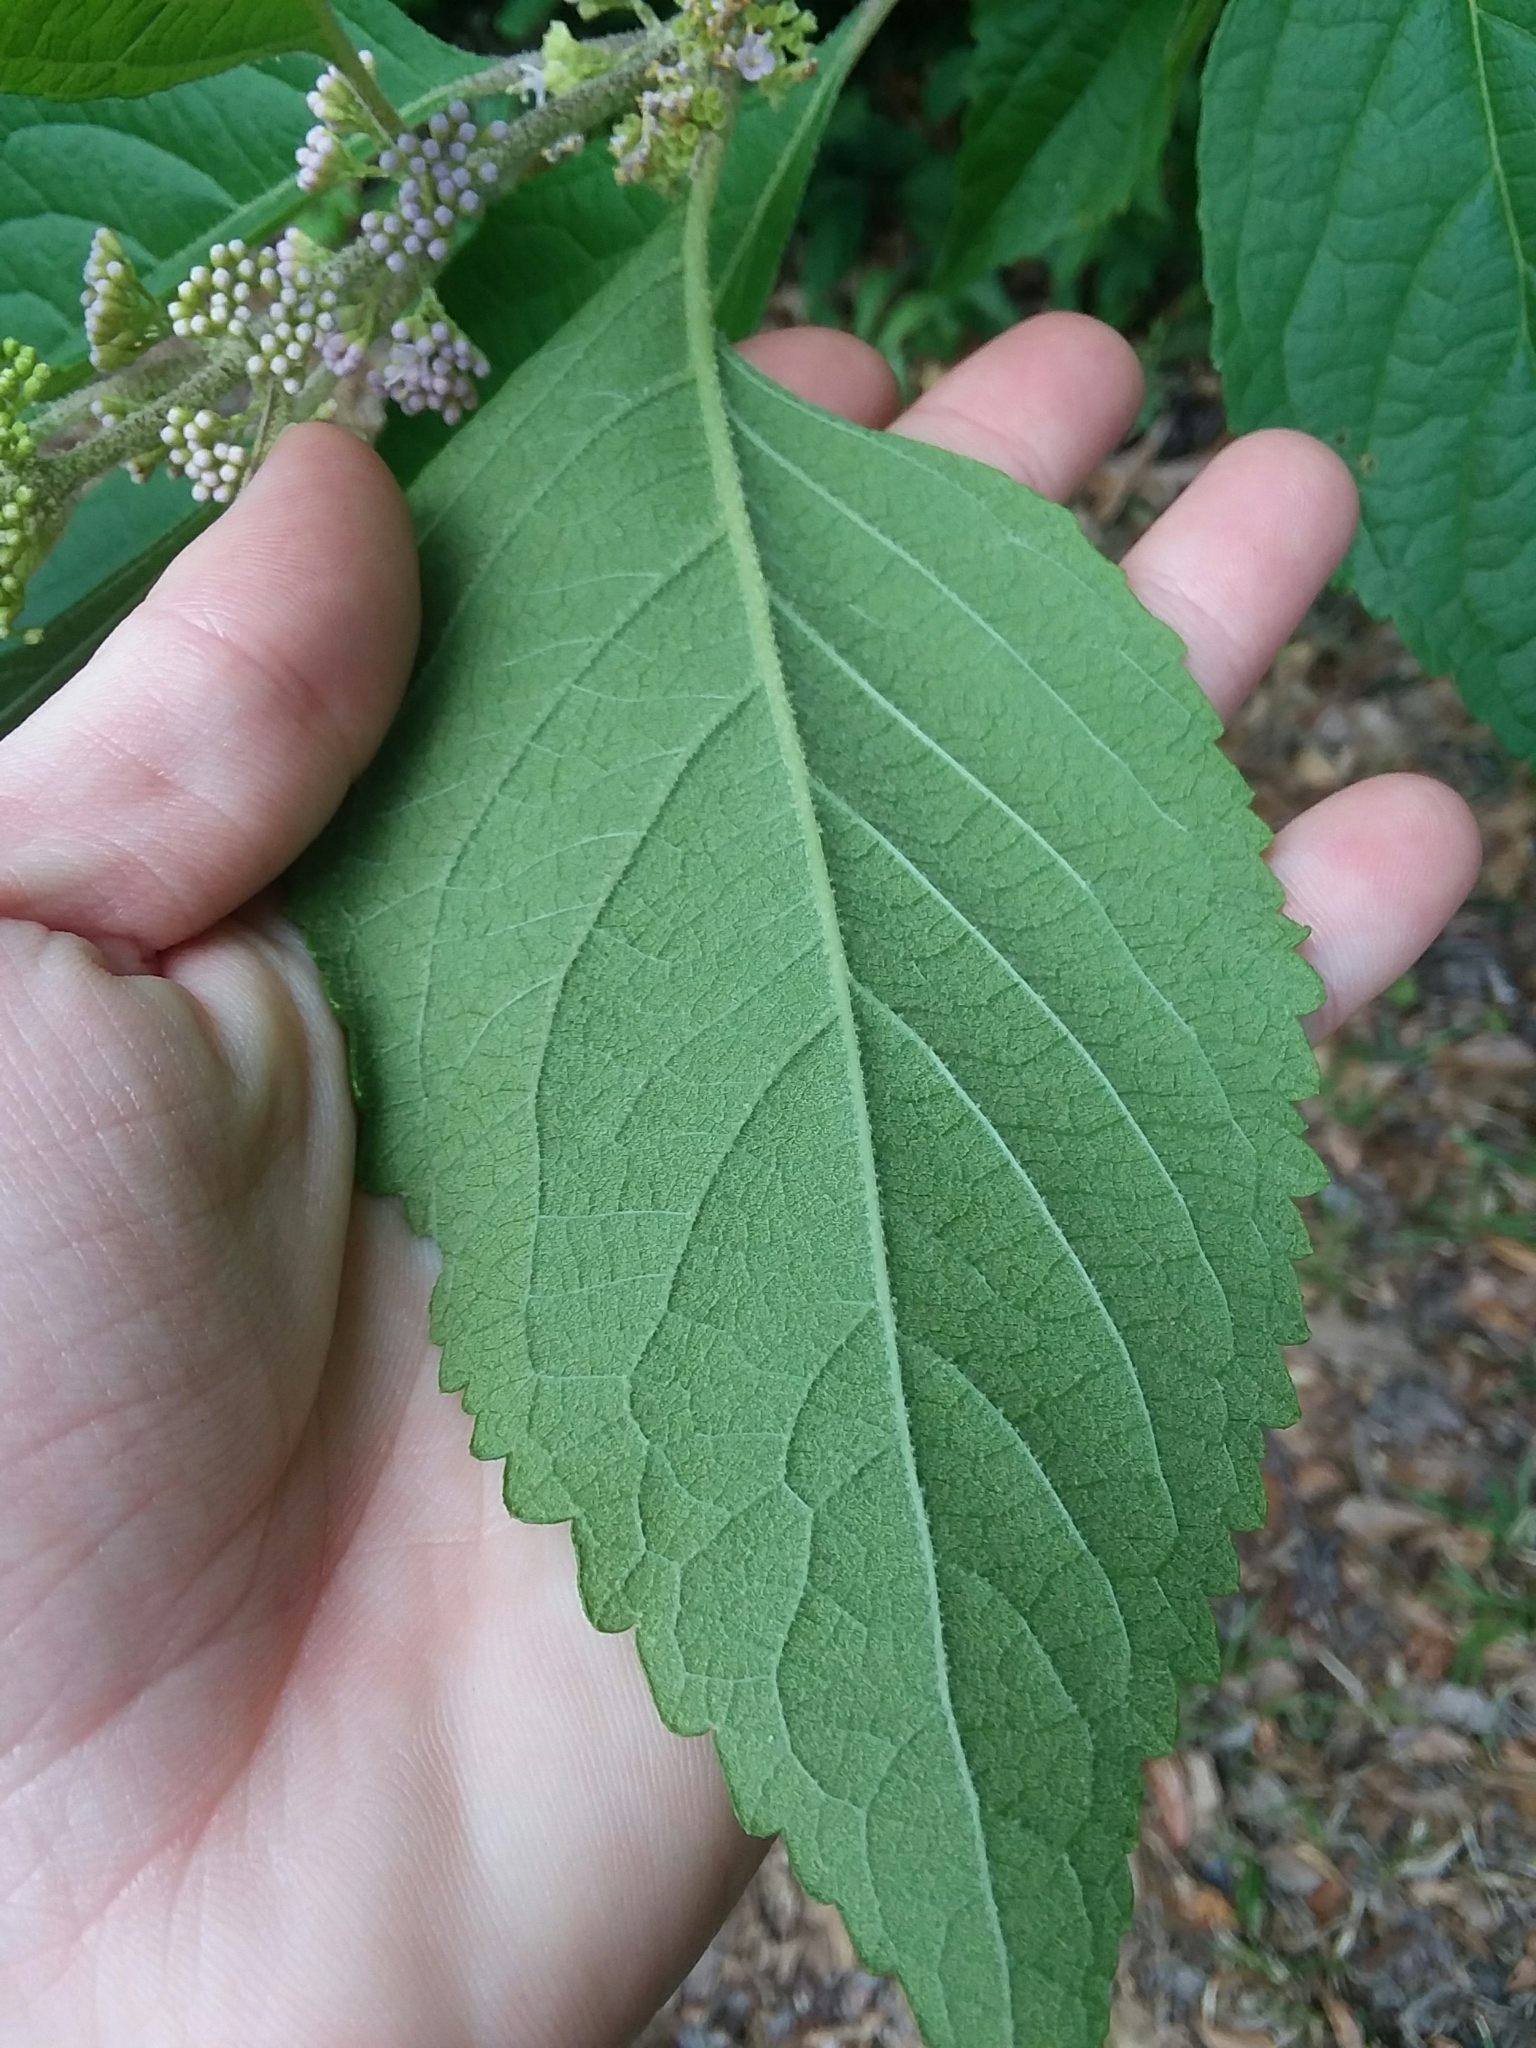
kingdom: Plantae
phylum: Tracheophyta
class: Magnoliopsida
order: Lamiales
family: Lamiaceae
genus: Callicarpa
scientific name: Callicarpa americana
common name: American beautyberry
